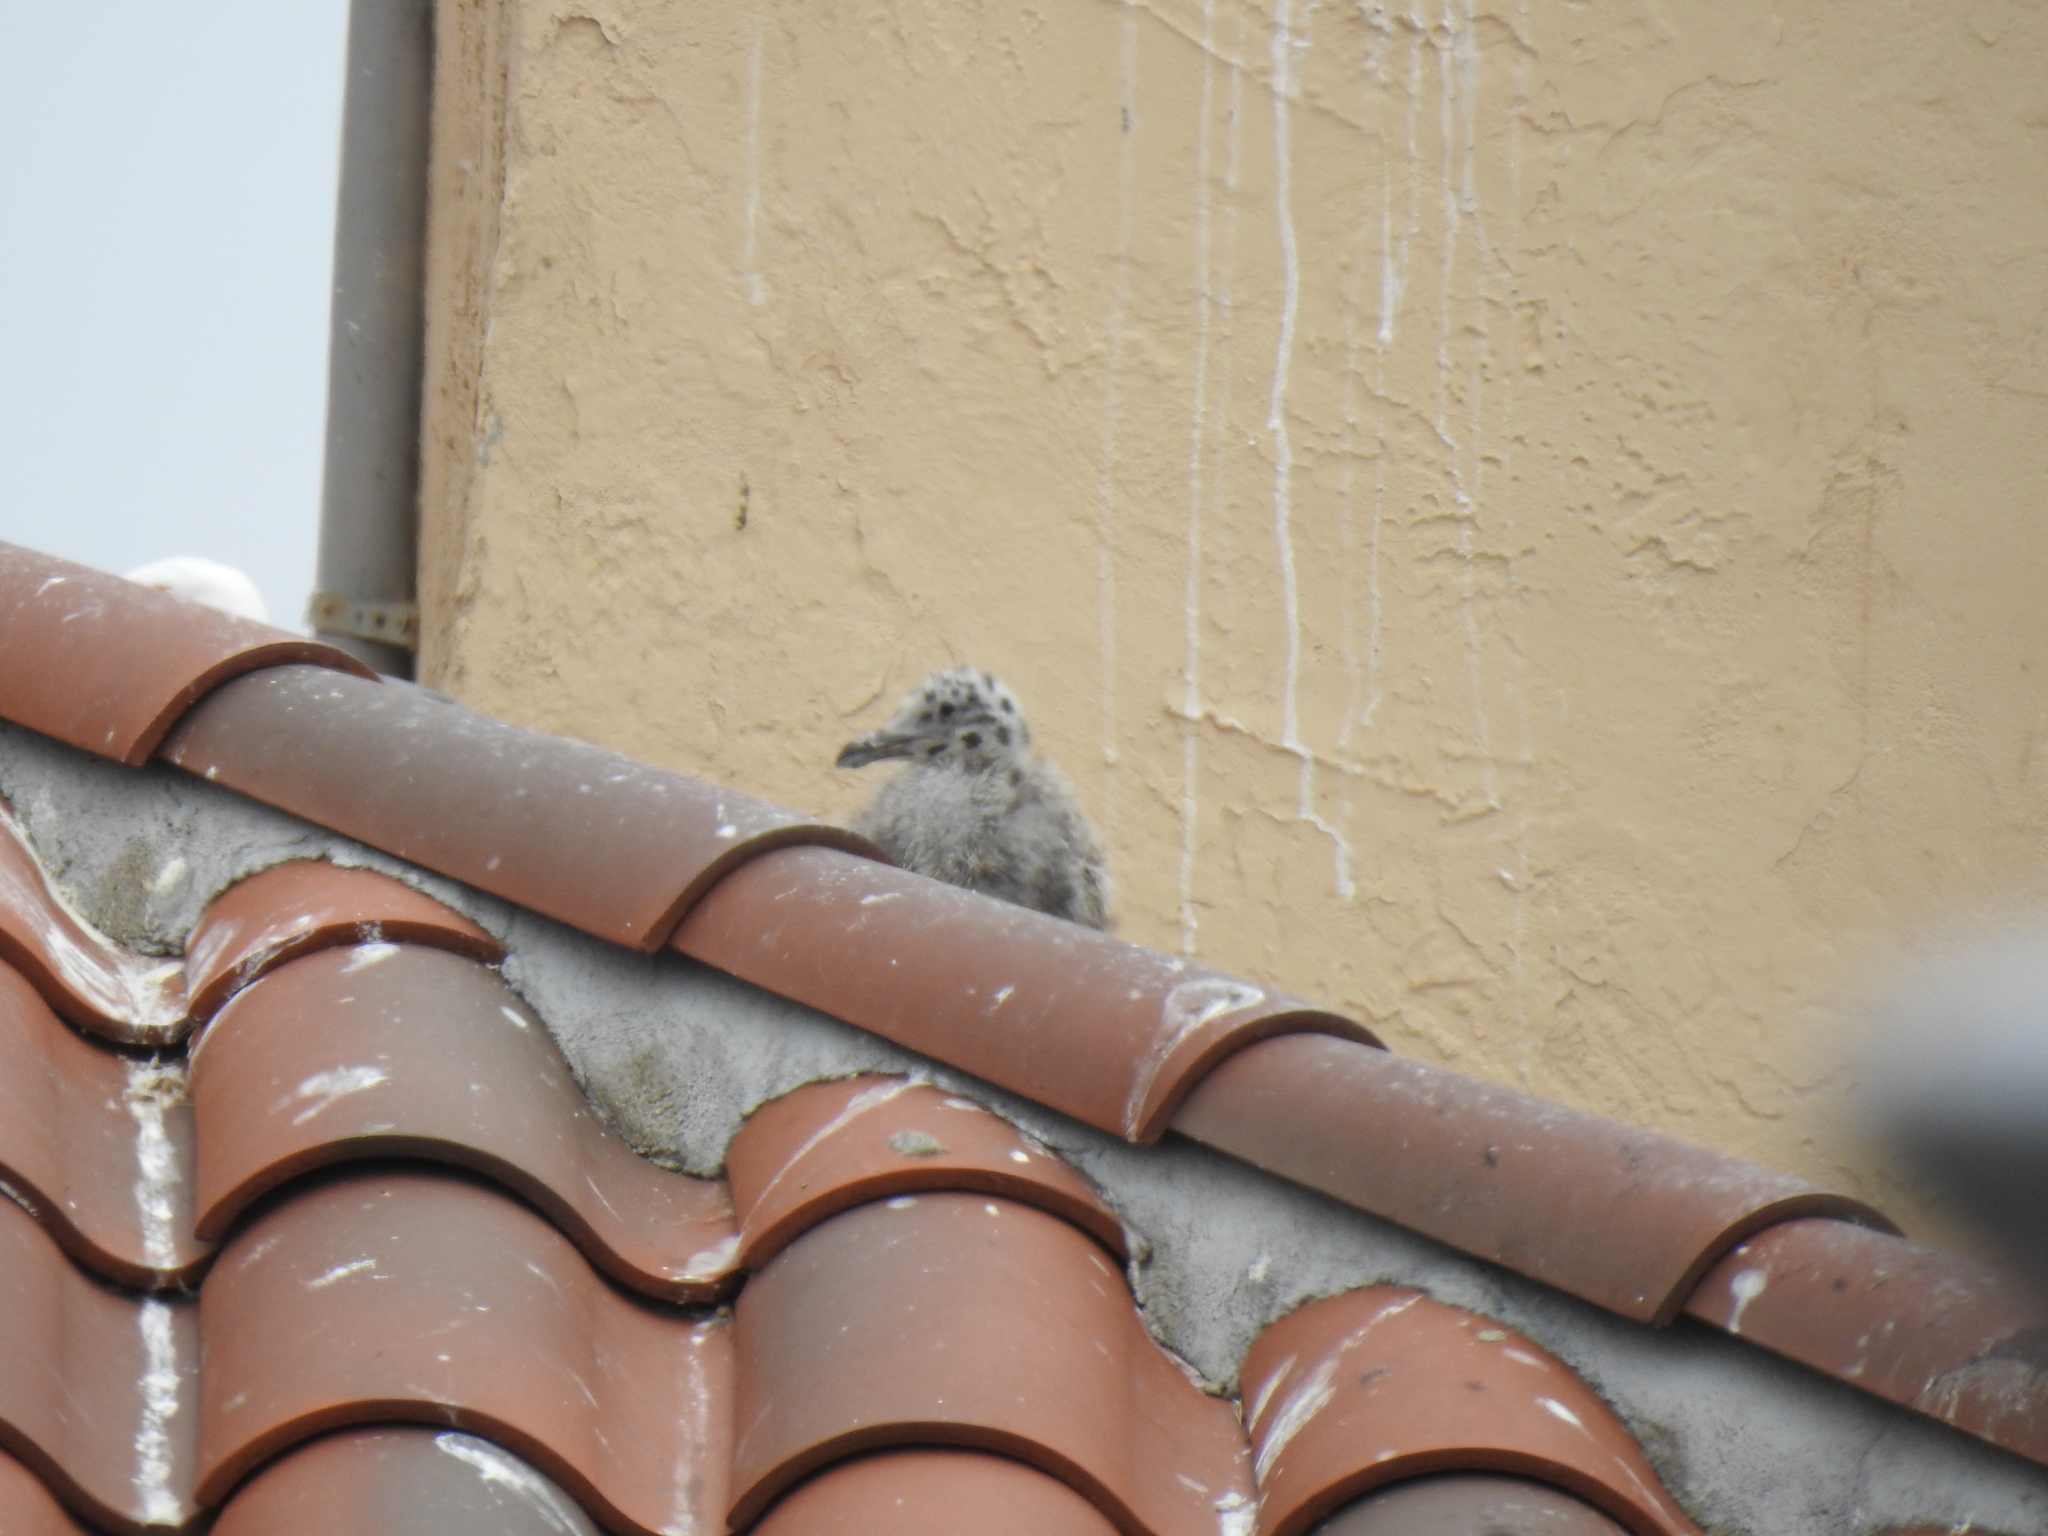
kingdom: Animalia
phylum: Chordata
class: Aves
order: Charadriiformes
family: Laridae
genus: Larus
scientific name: Larus occidentalis
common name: Western gull
